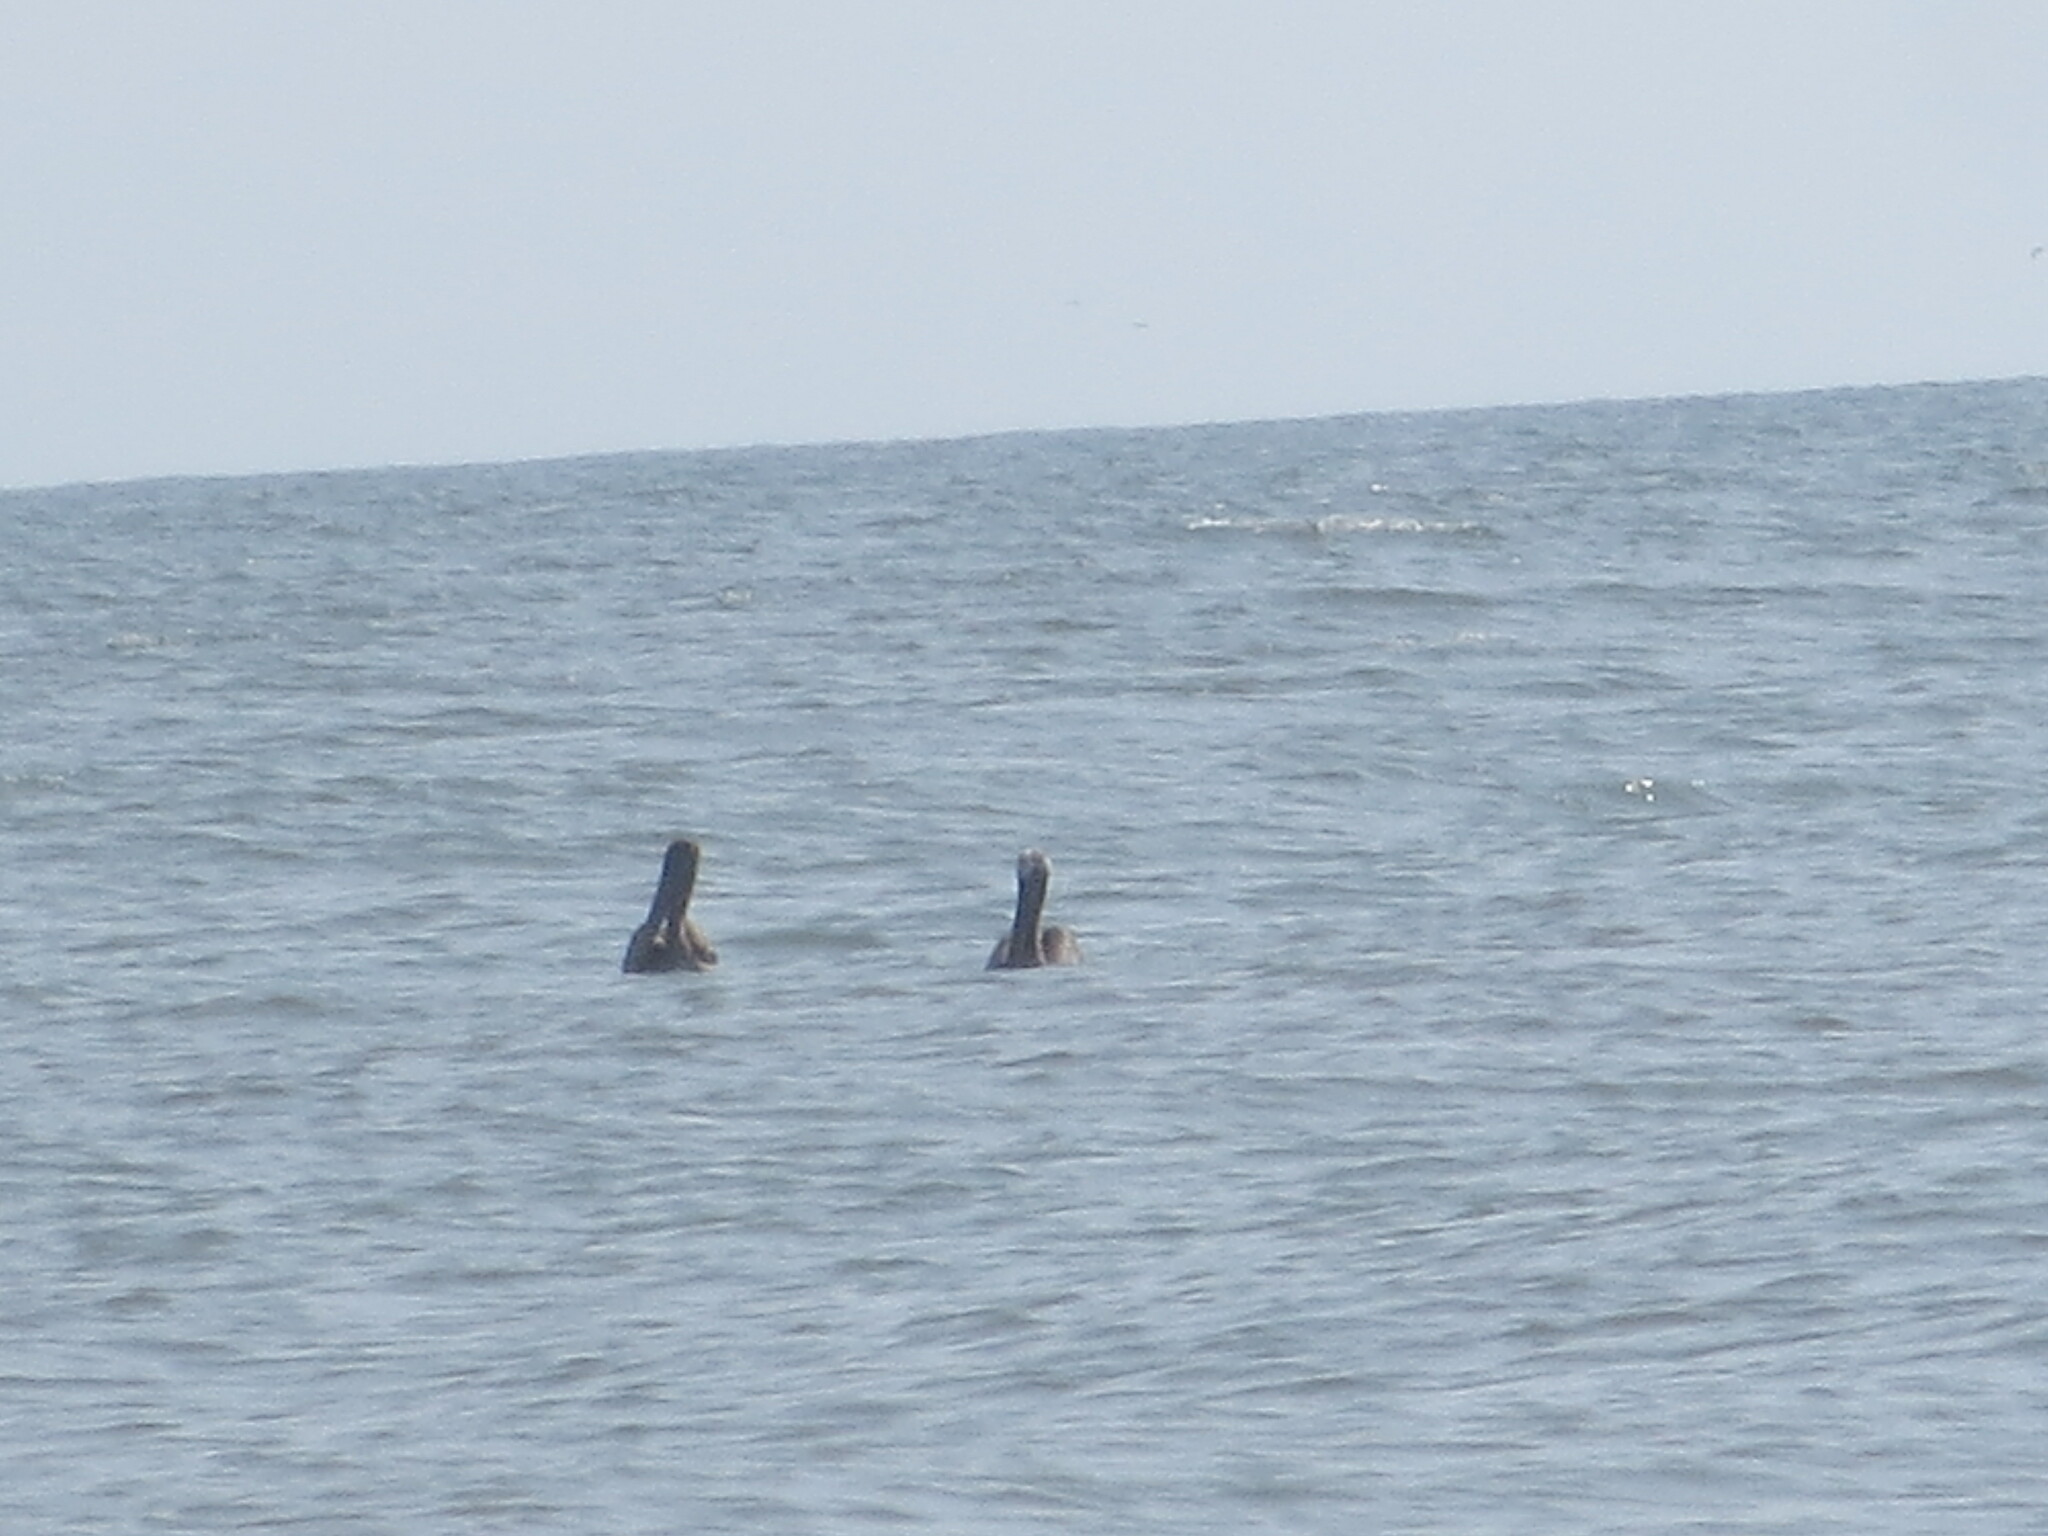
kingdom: Animalia
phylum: Chordata
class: Aves
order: Pelecaniformes
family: Pelecanidae
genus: Pelecanus
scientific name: Pelecanus occidentalis
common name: Brown pelican
